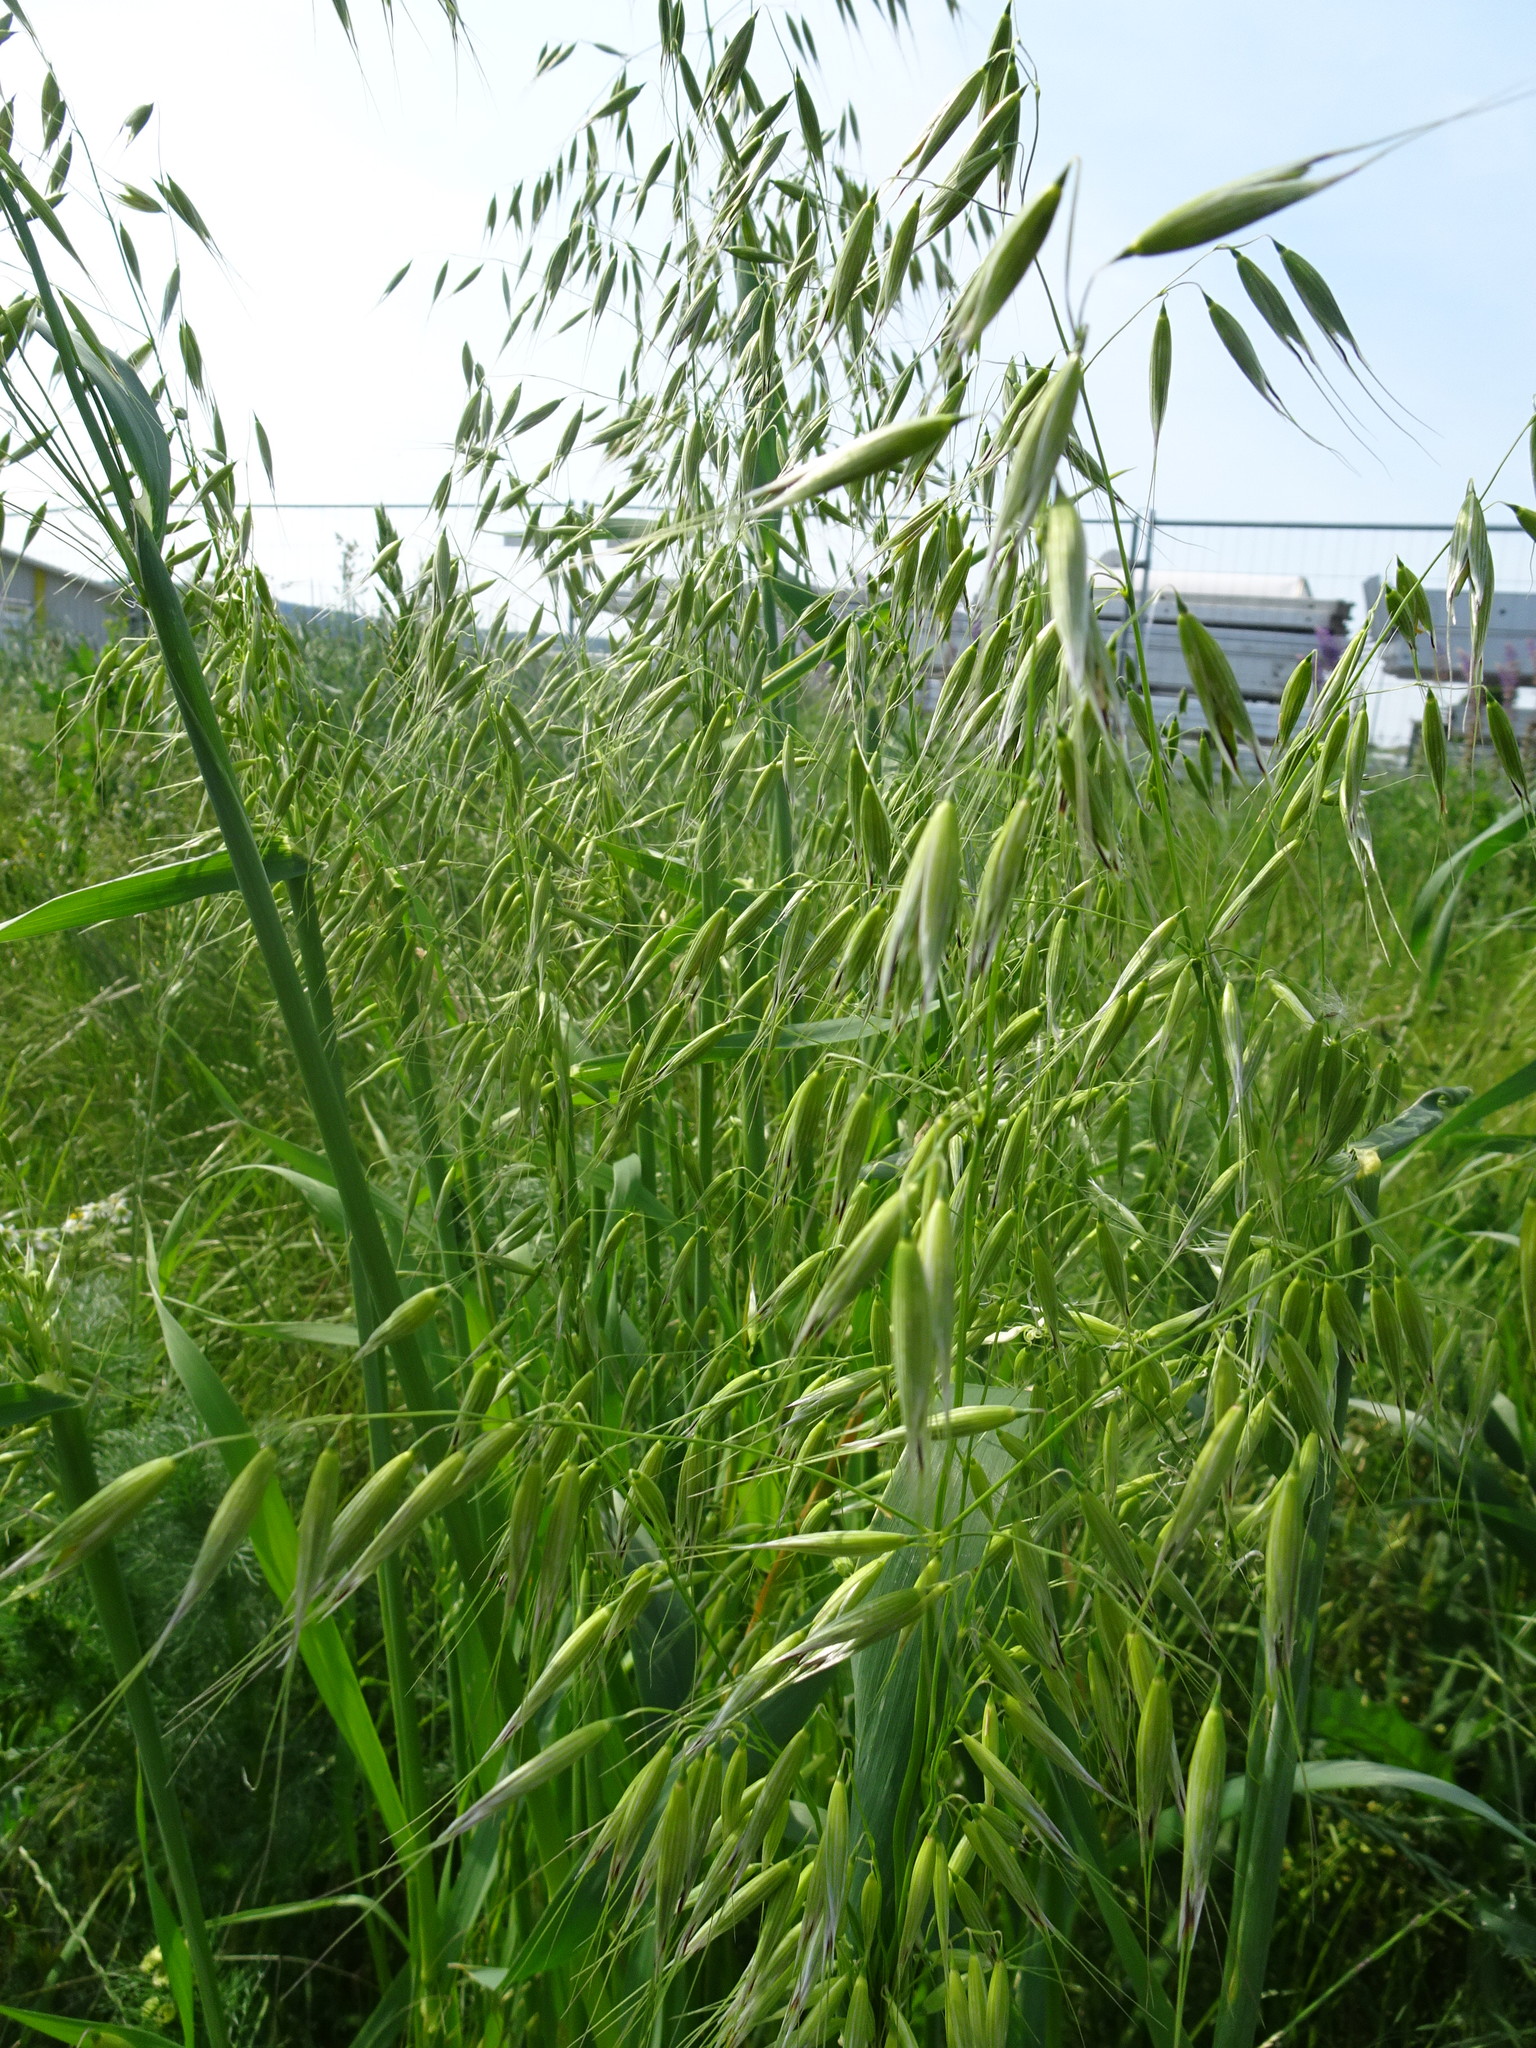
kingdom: Plantae
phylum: Tracheophyta
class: Liliopsida
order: Poales
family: Poaceae
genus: Avena
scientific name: Avena fatua
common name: Wild oat
